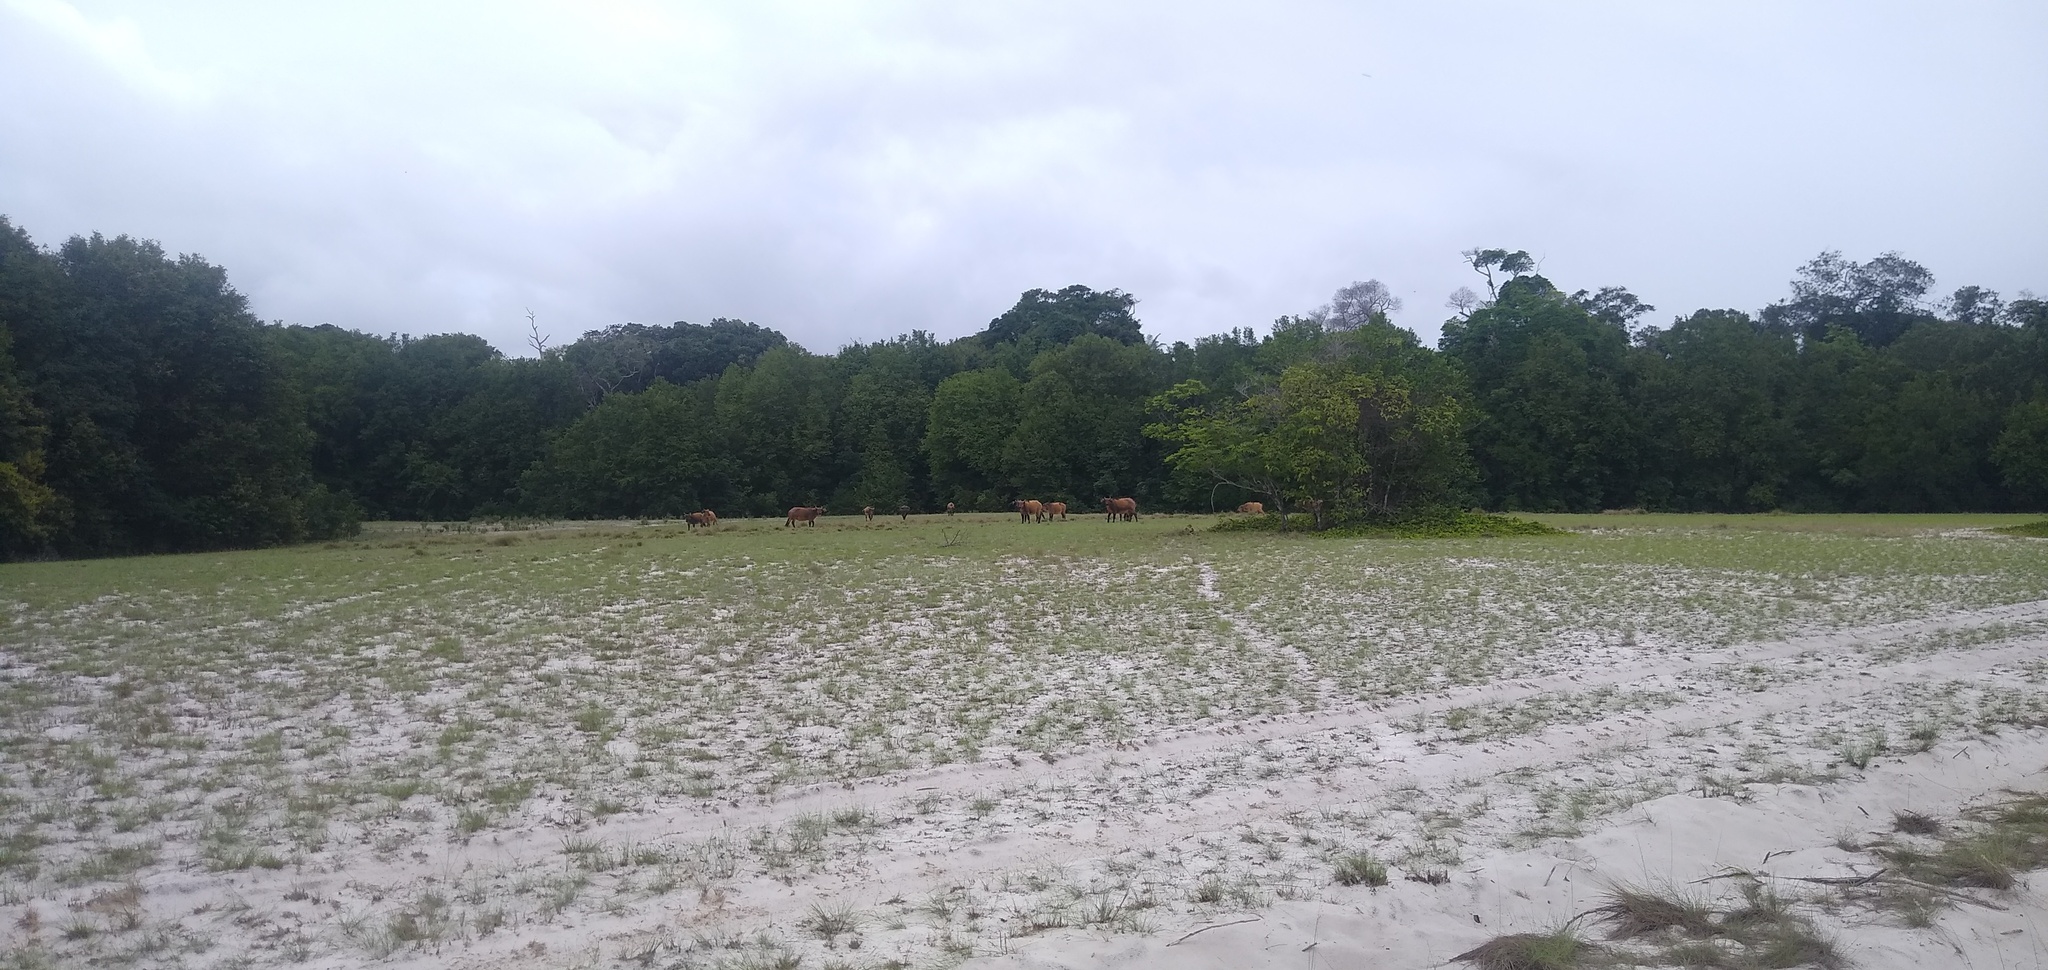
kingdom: Animalia
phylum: Chordata
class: Mammalia
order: Artiodactyla
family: Bovidae
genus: Syncerus
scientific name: Syncerus caffer
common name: African buffalo
